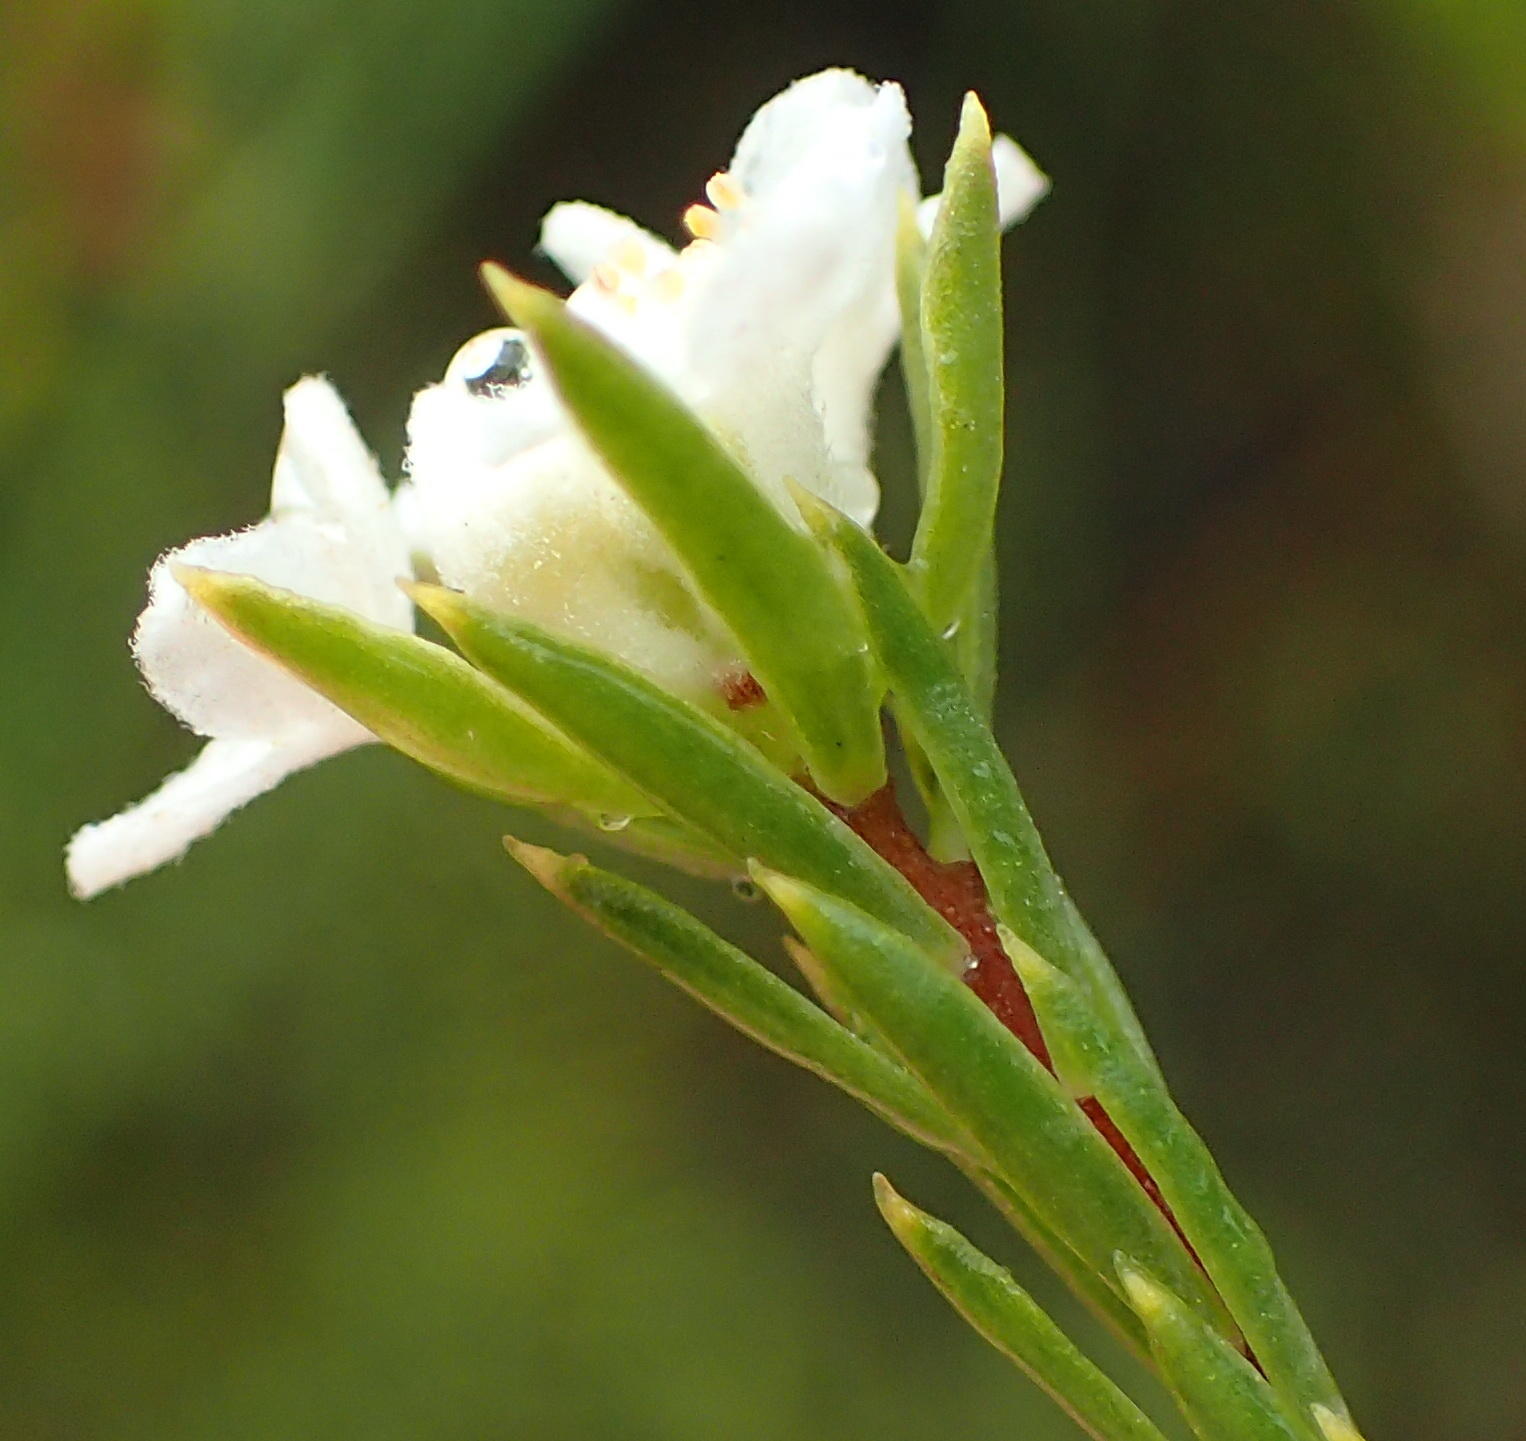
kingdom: Plantae
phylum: Tracheophyta
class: Magnoliopsida
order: Malvales
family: Thymelaeaceae
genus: Lachnaea
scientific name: Lachnaea diosmoides
